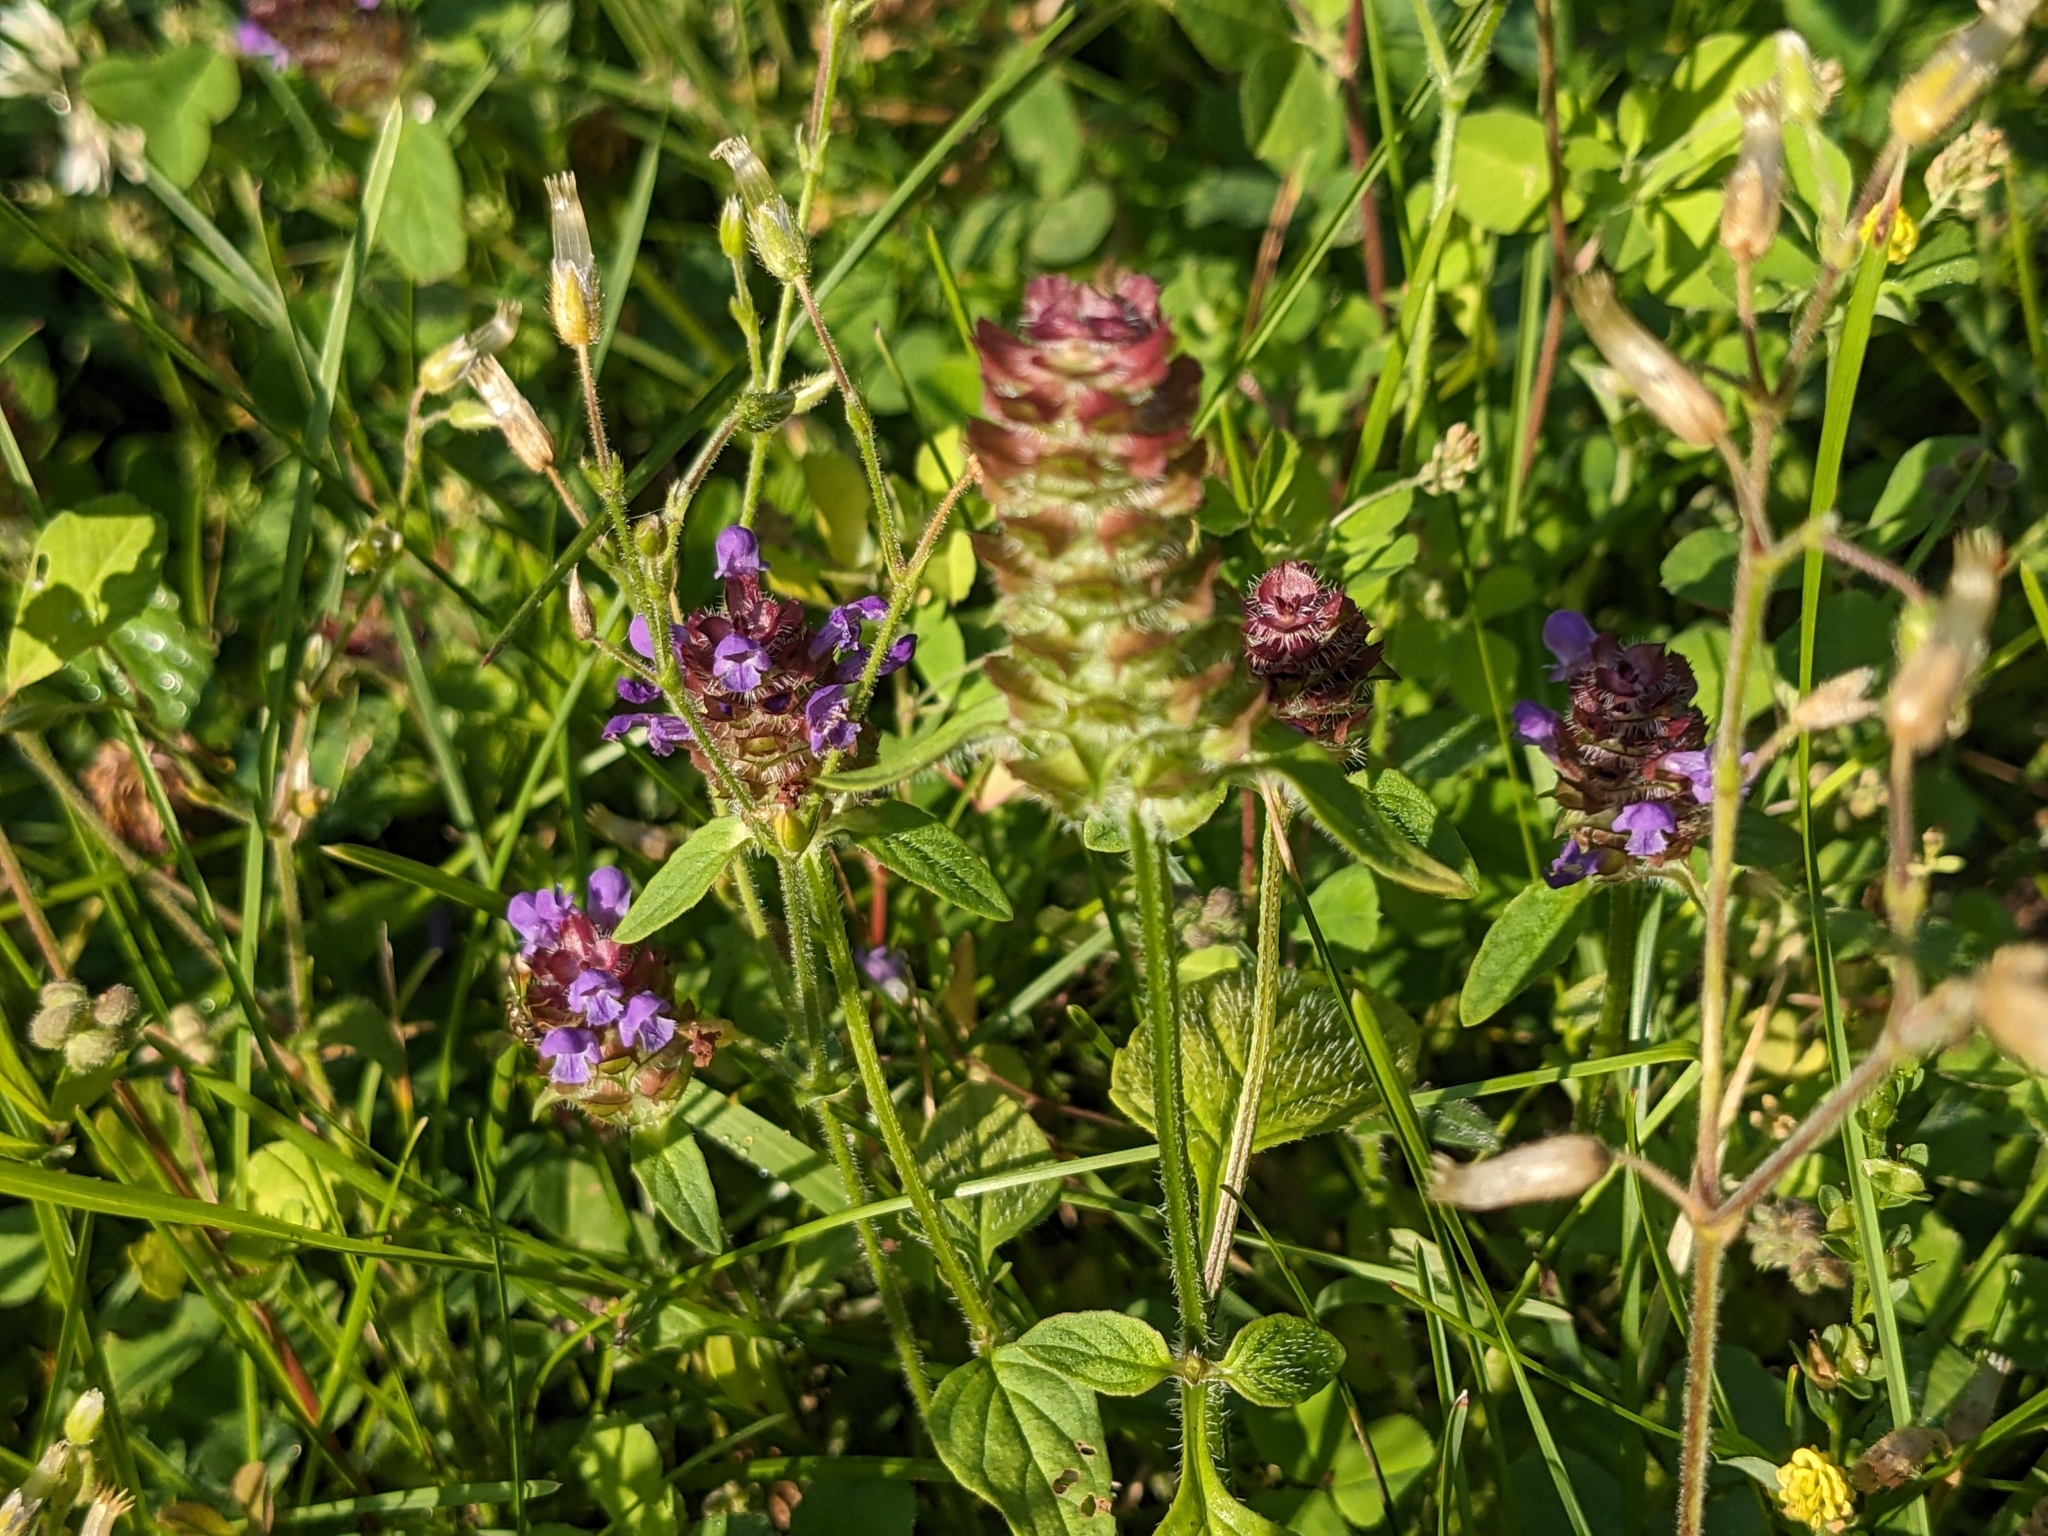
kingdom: Plantae
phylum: Tracheophyta
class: Magnoliopsida
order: Lamiales
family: Lamiaceae
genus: Prunella
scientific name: Prunella vulgaris
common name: Heal-all
